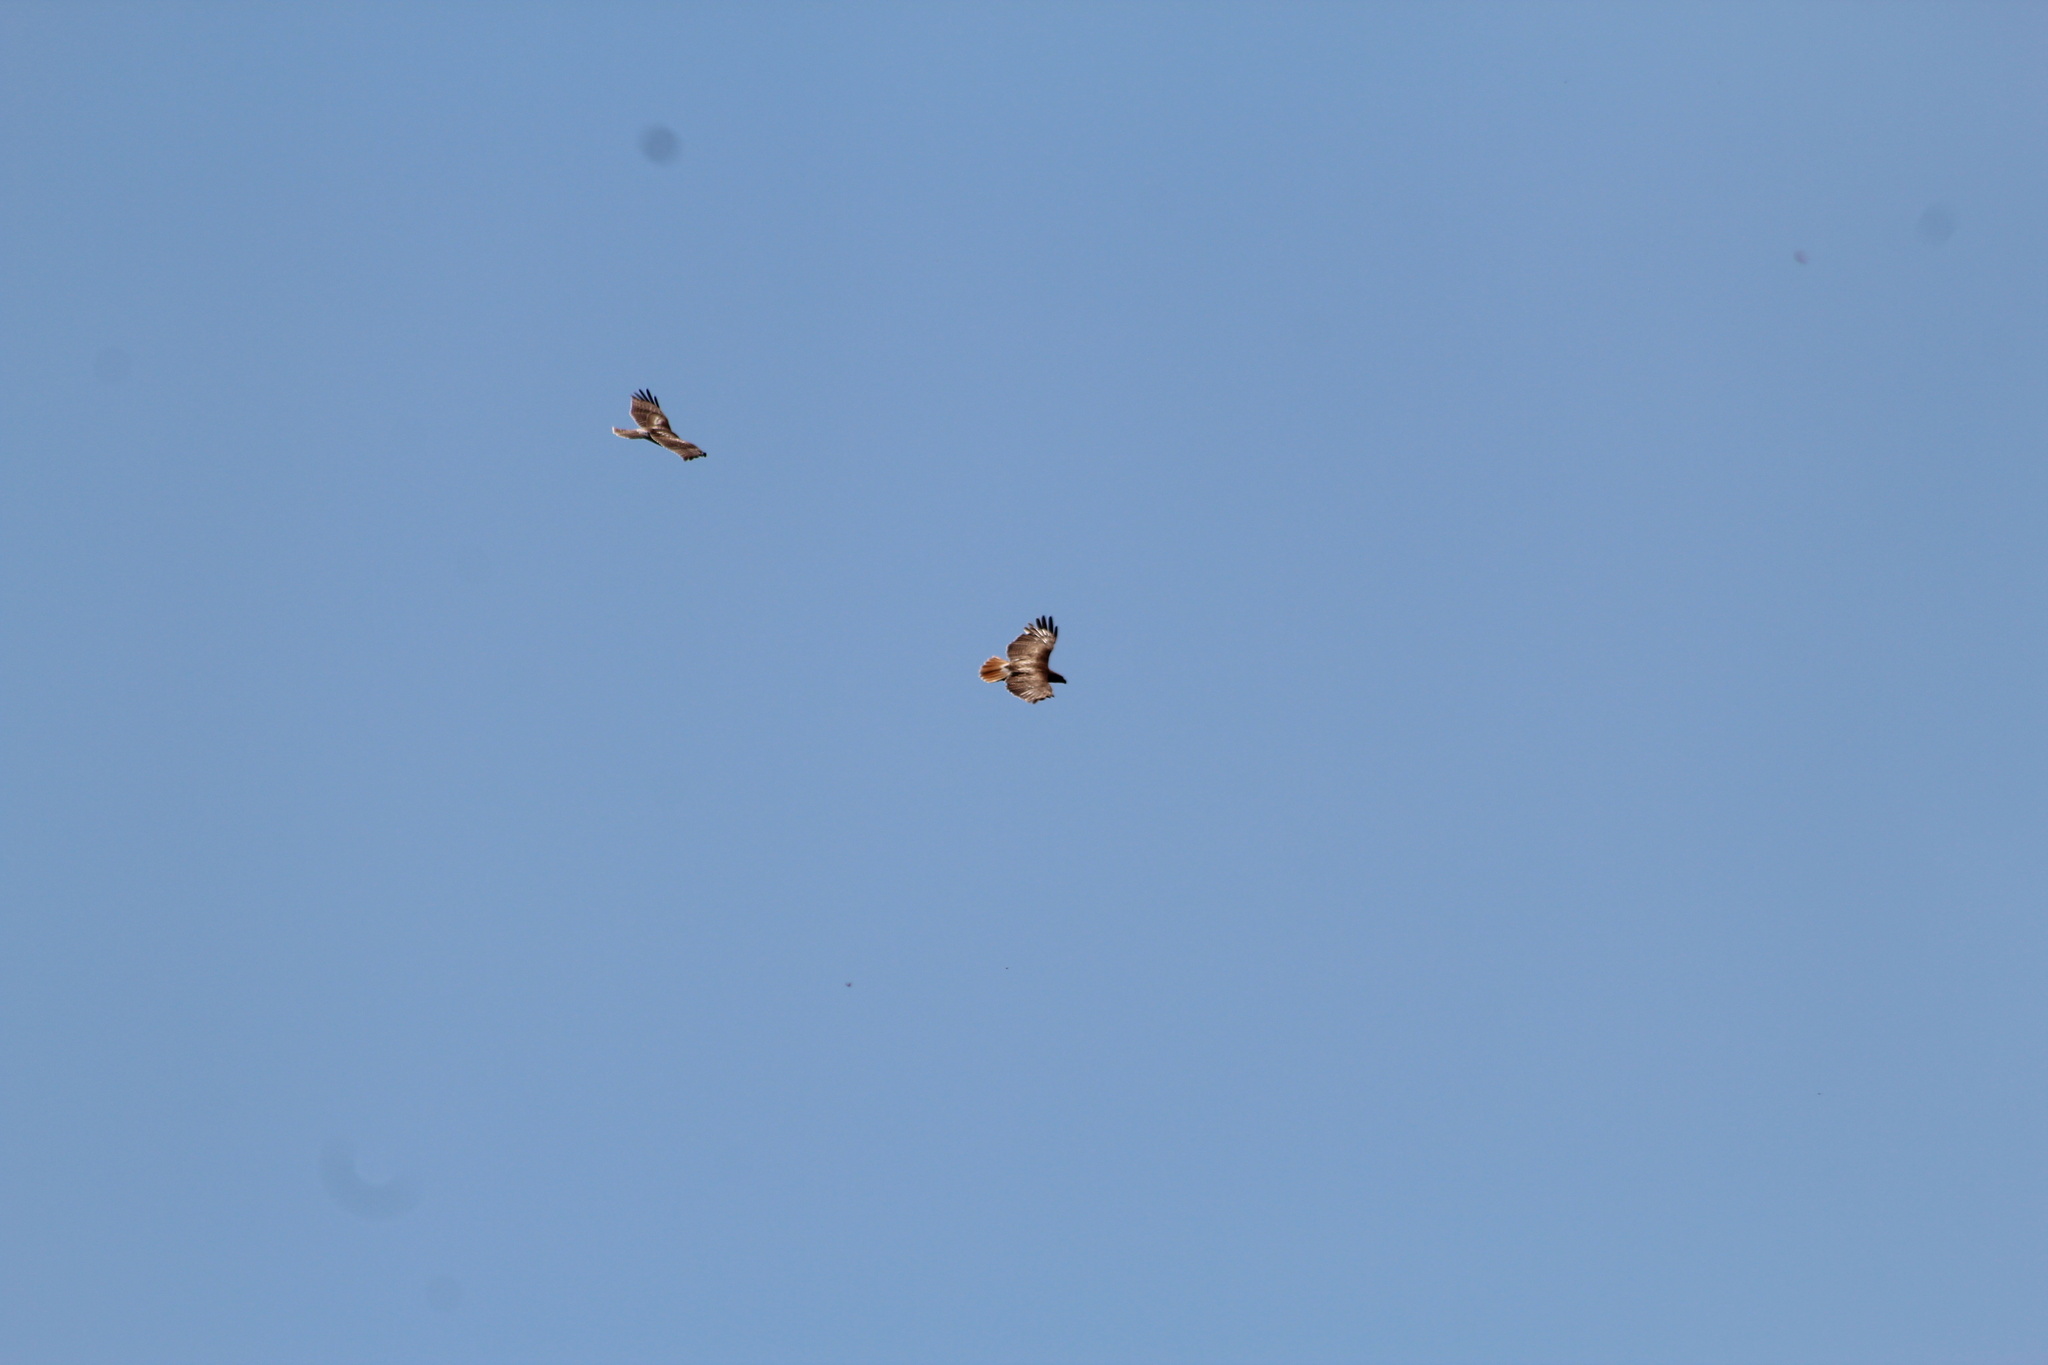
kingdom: Animalia
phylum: Chordata
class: Aves
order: Accipitriformes
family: Accipitridae
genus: Buteo
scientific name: Buteo jamaicensis
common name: Red-tailed hawk
